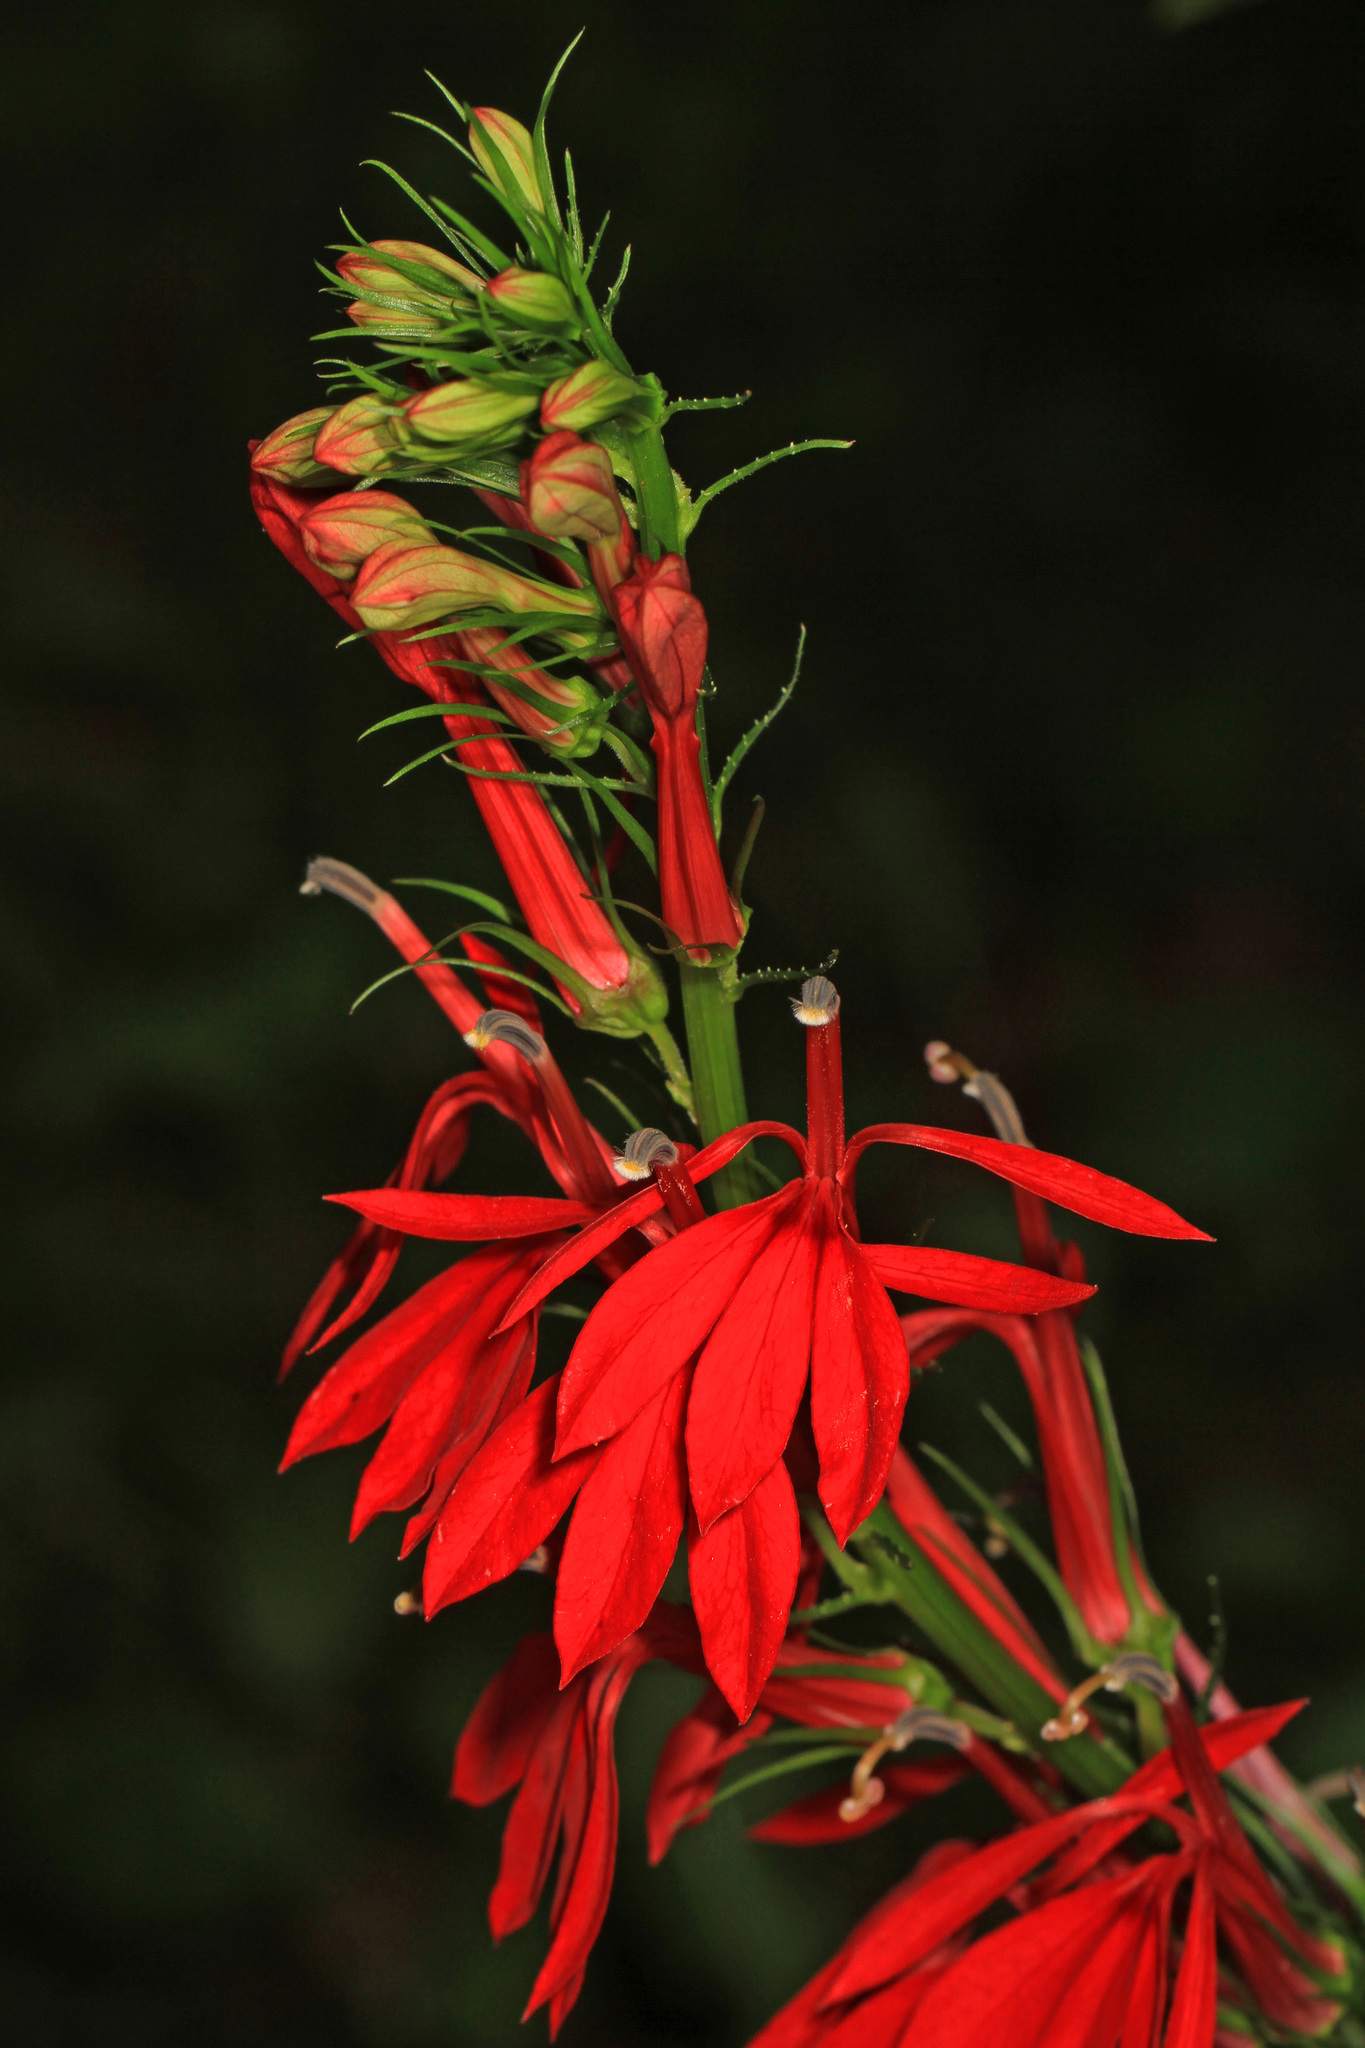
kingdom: Plantae
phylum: Tracheophyta
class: Magnoliopsida
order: Asterales
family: Campanulaceae
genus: Lobelia
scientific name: Lobelia cardinalis
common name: Cardinal flower
